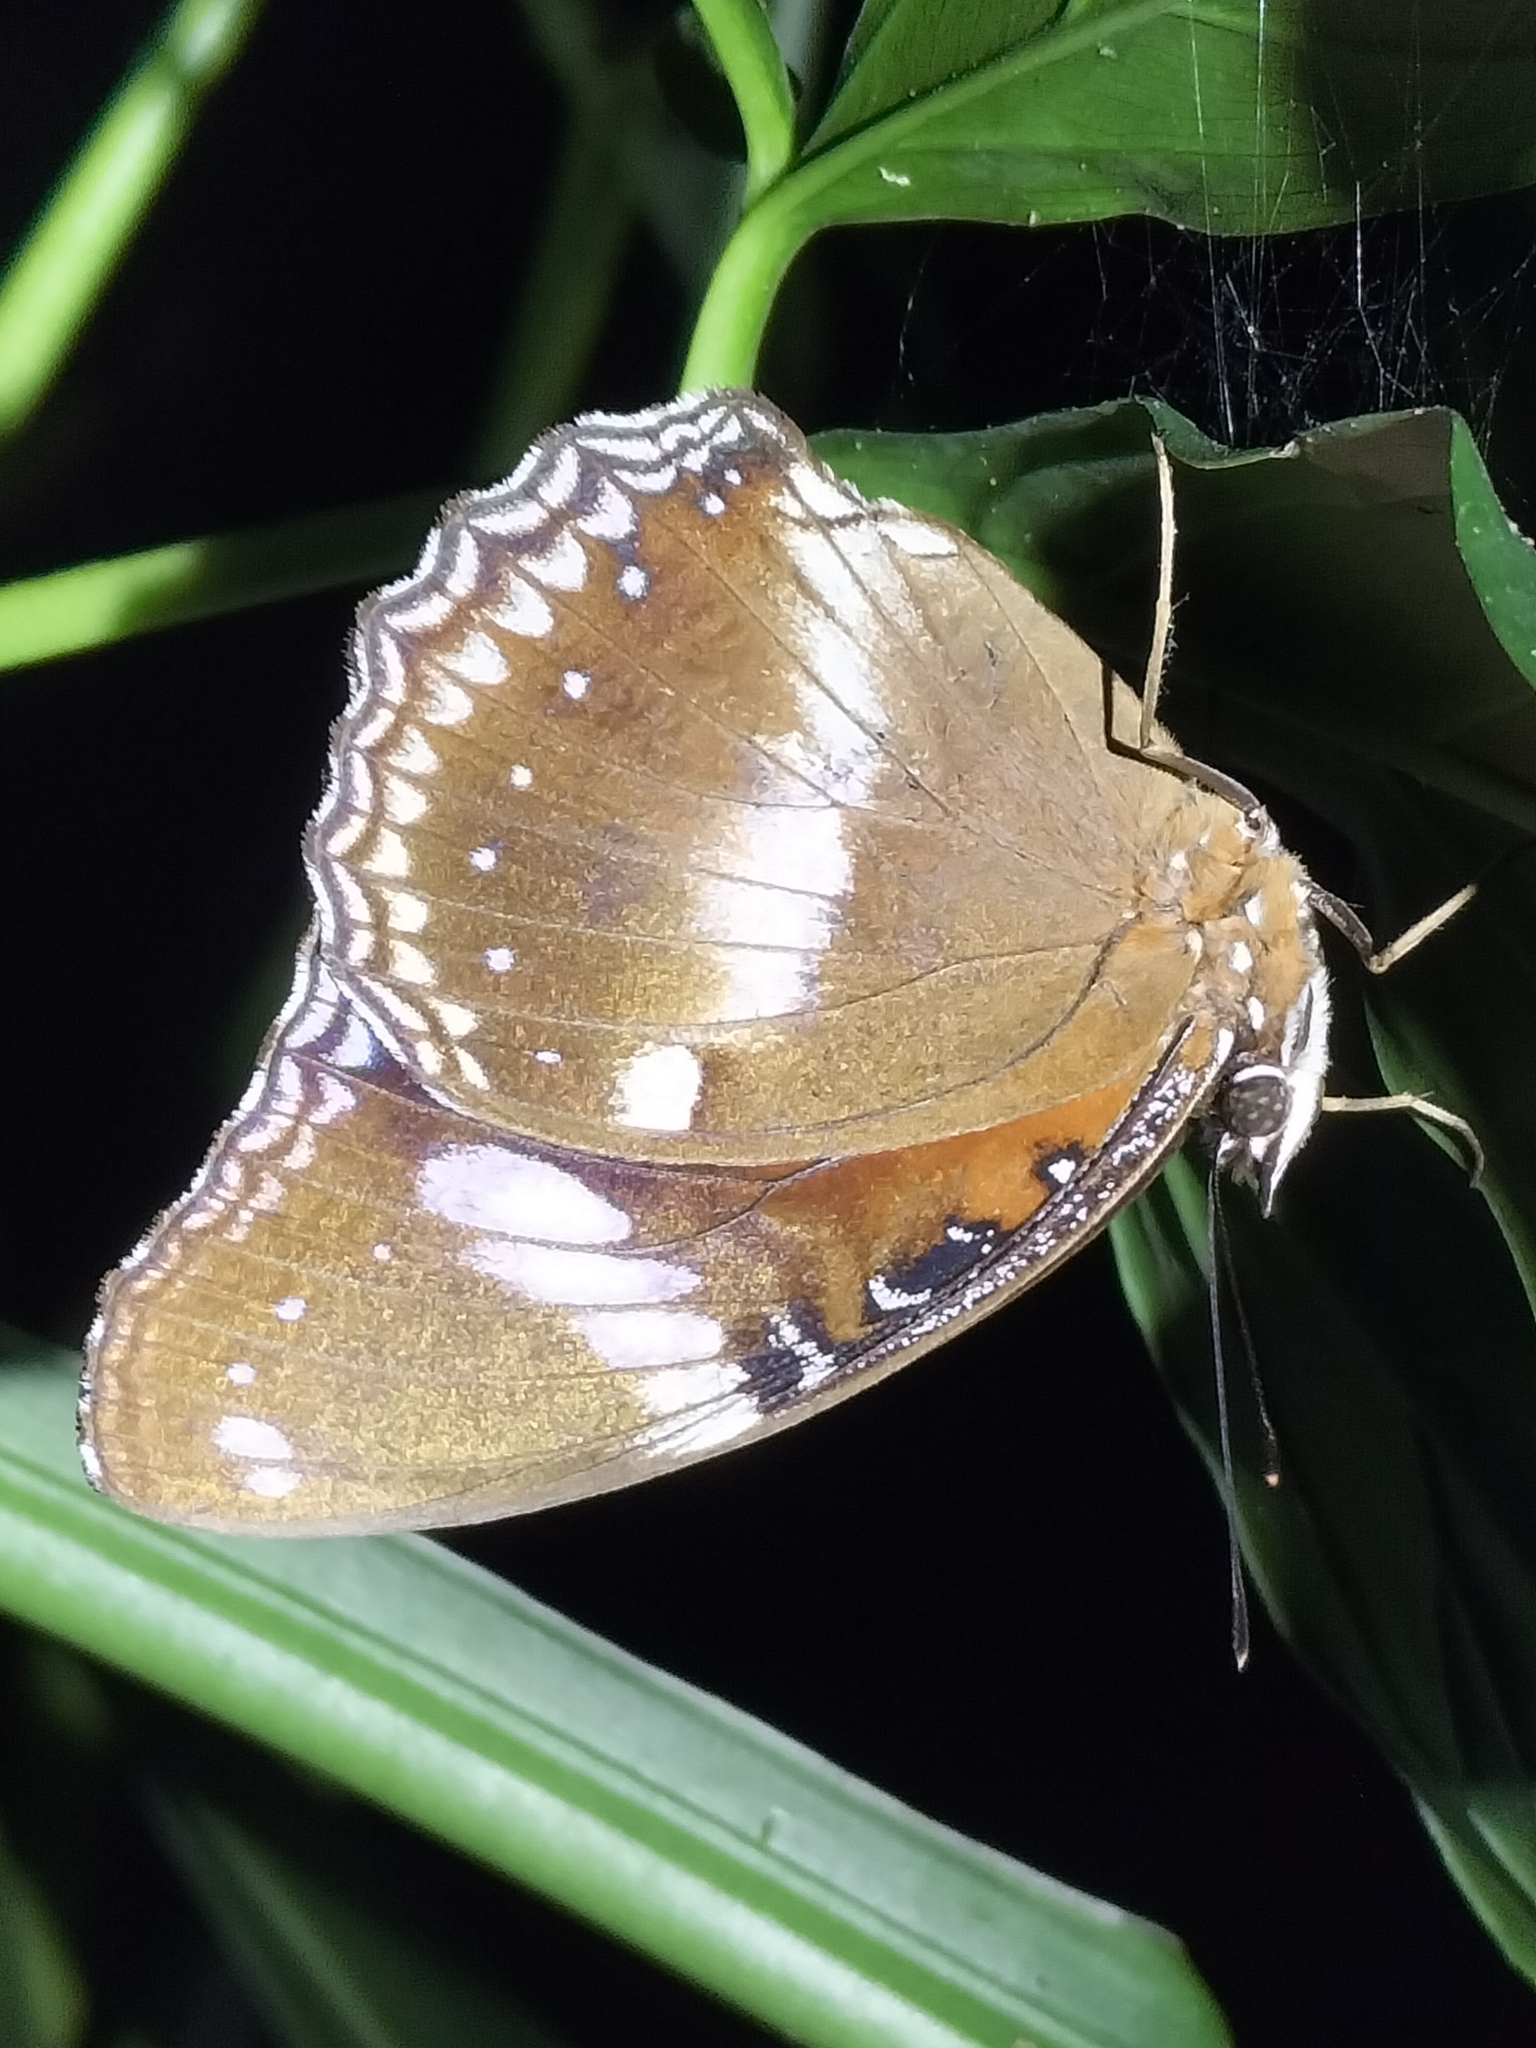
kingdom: Animalia
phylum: Arthropoda
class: Insecta
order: Lepidoptera
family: Nymphalidae
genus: Hypolimnas
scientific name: Hypolimnas bolina
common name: Great eggfly
